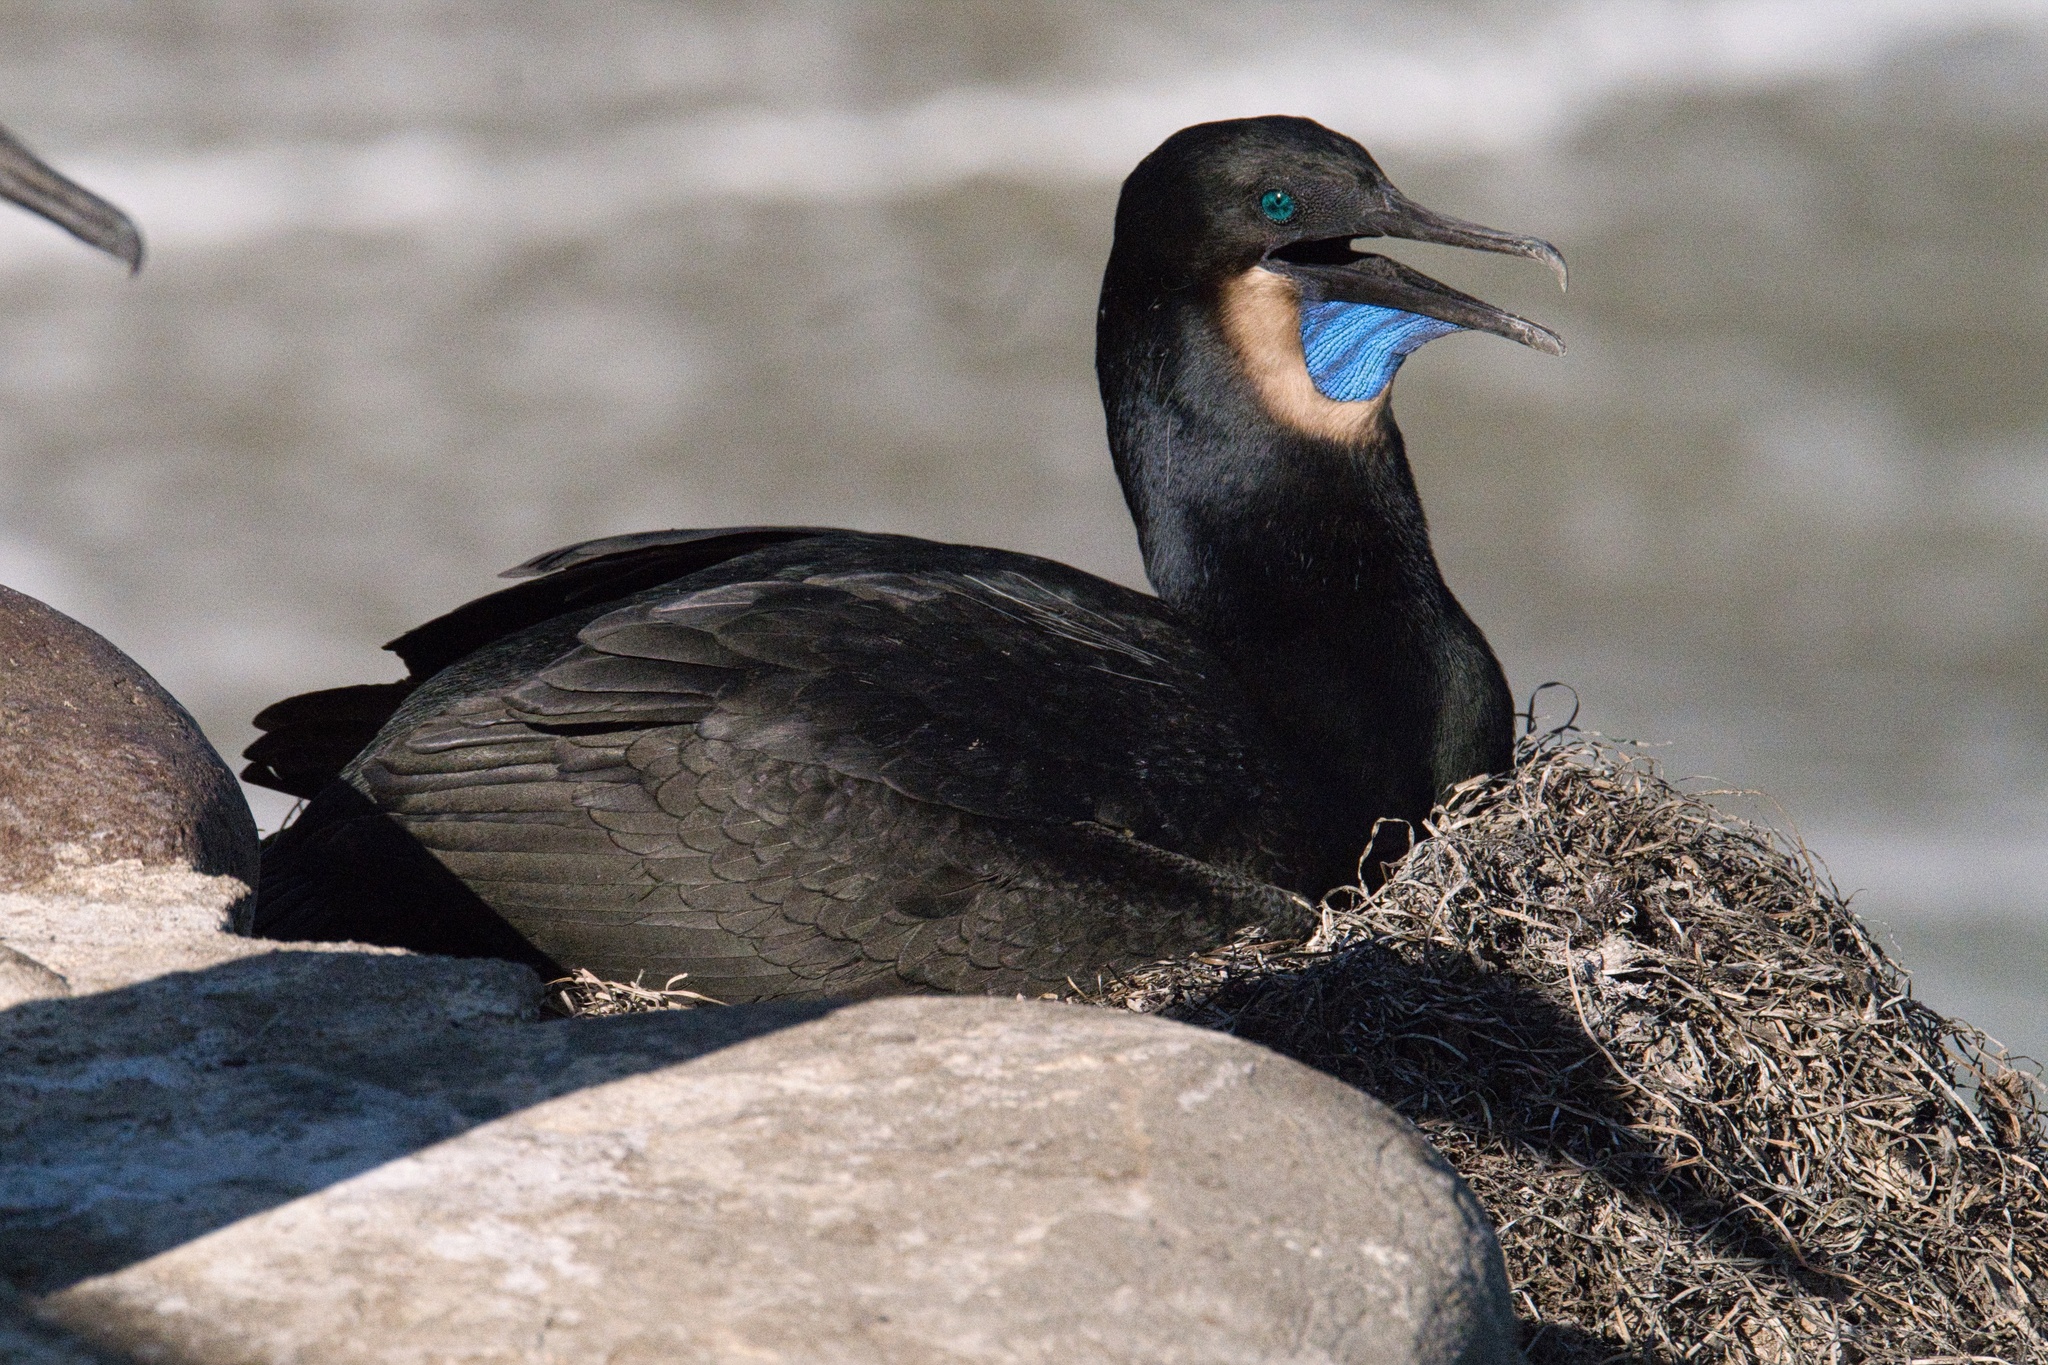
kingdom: Animalia
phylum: Chordata
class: Aves
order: Suliformes
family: Phalacrocoracidae
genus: Urile
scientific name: Urile penicillatus
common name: Brandt's cormorant
